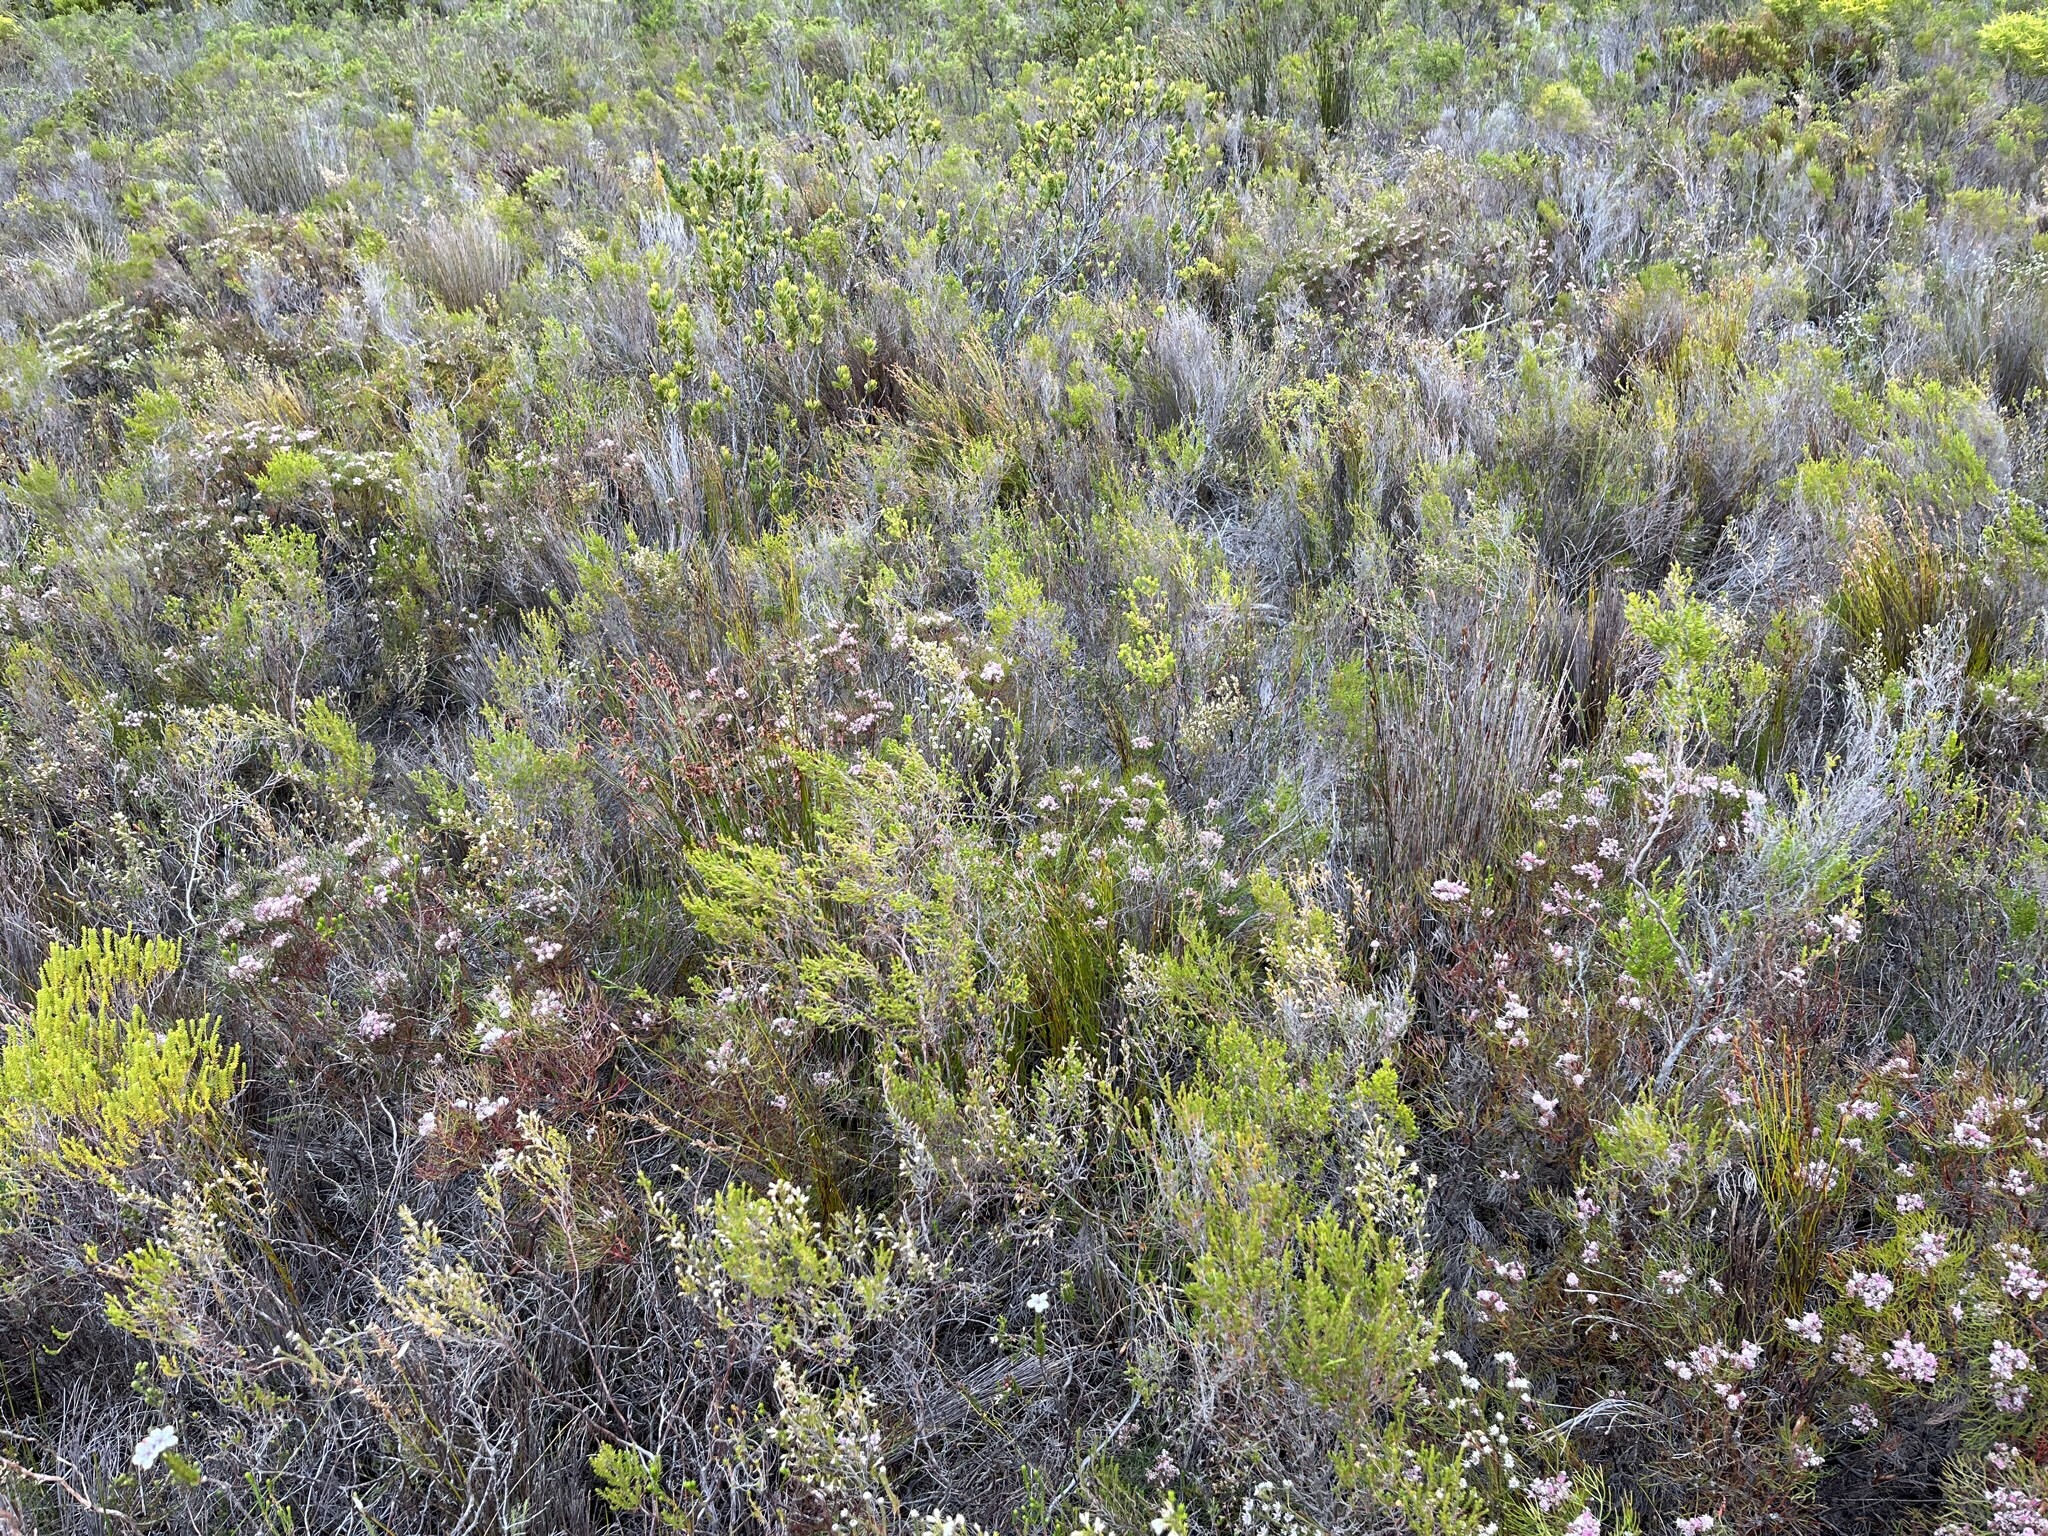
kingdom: Plantae
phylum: Tracheophyta
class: Magnoliopsida
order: Proteales
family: Proteaceae
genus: Serruria
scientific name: Serruria fasciflora
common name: Common pin spiderhead
